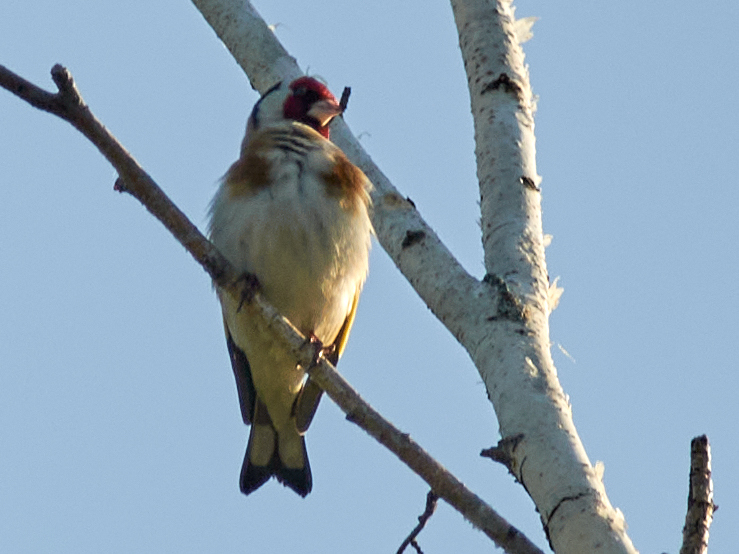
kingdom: Animalia
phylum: Chordata
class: Aves
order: Passeriformes
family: Fringillidae
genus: Carduelis
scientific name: Carduelis carduelis
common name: European goldfinch
